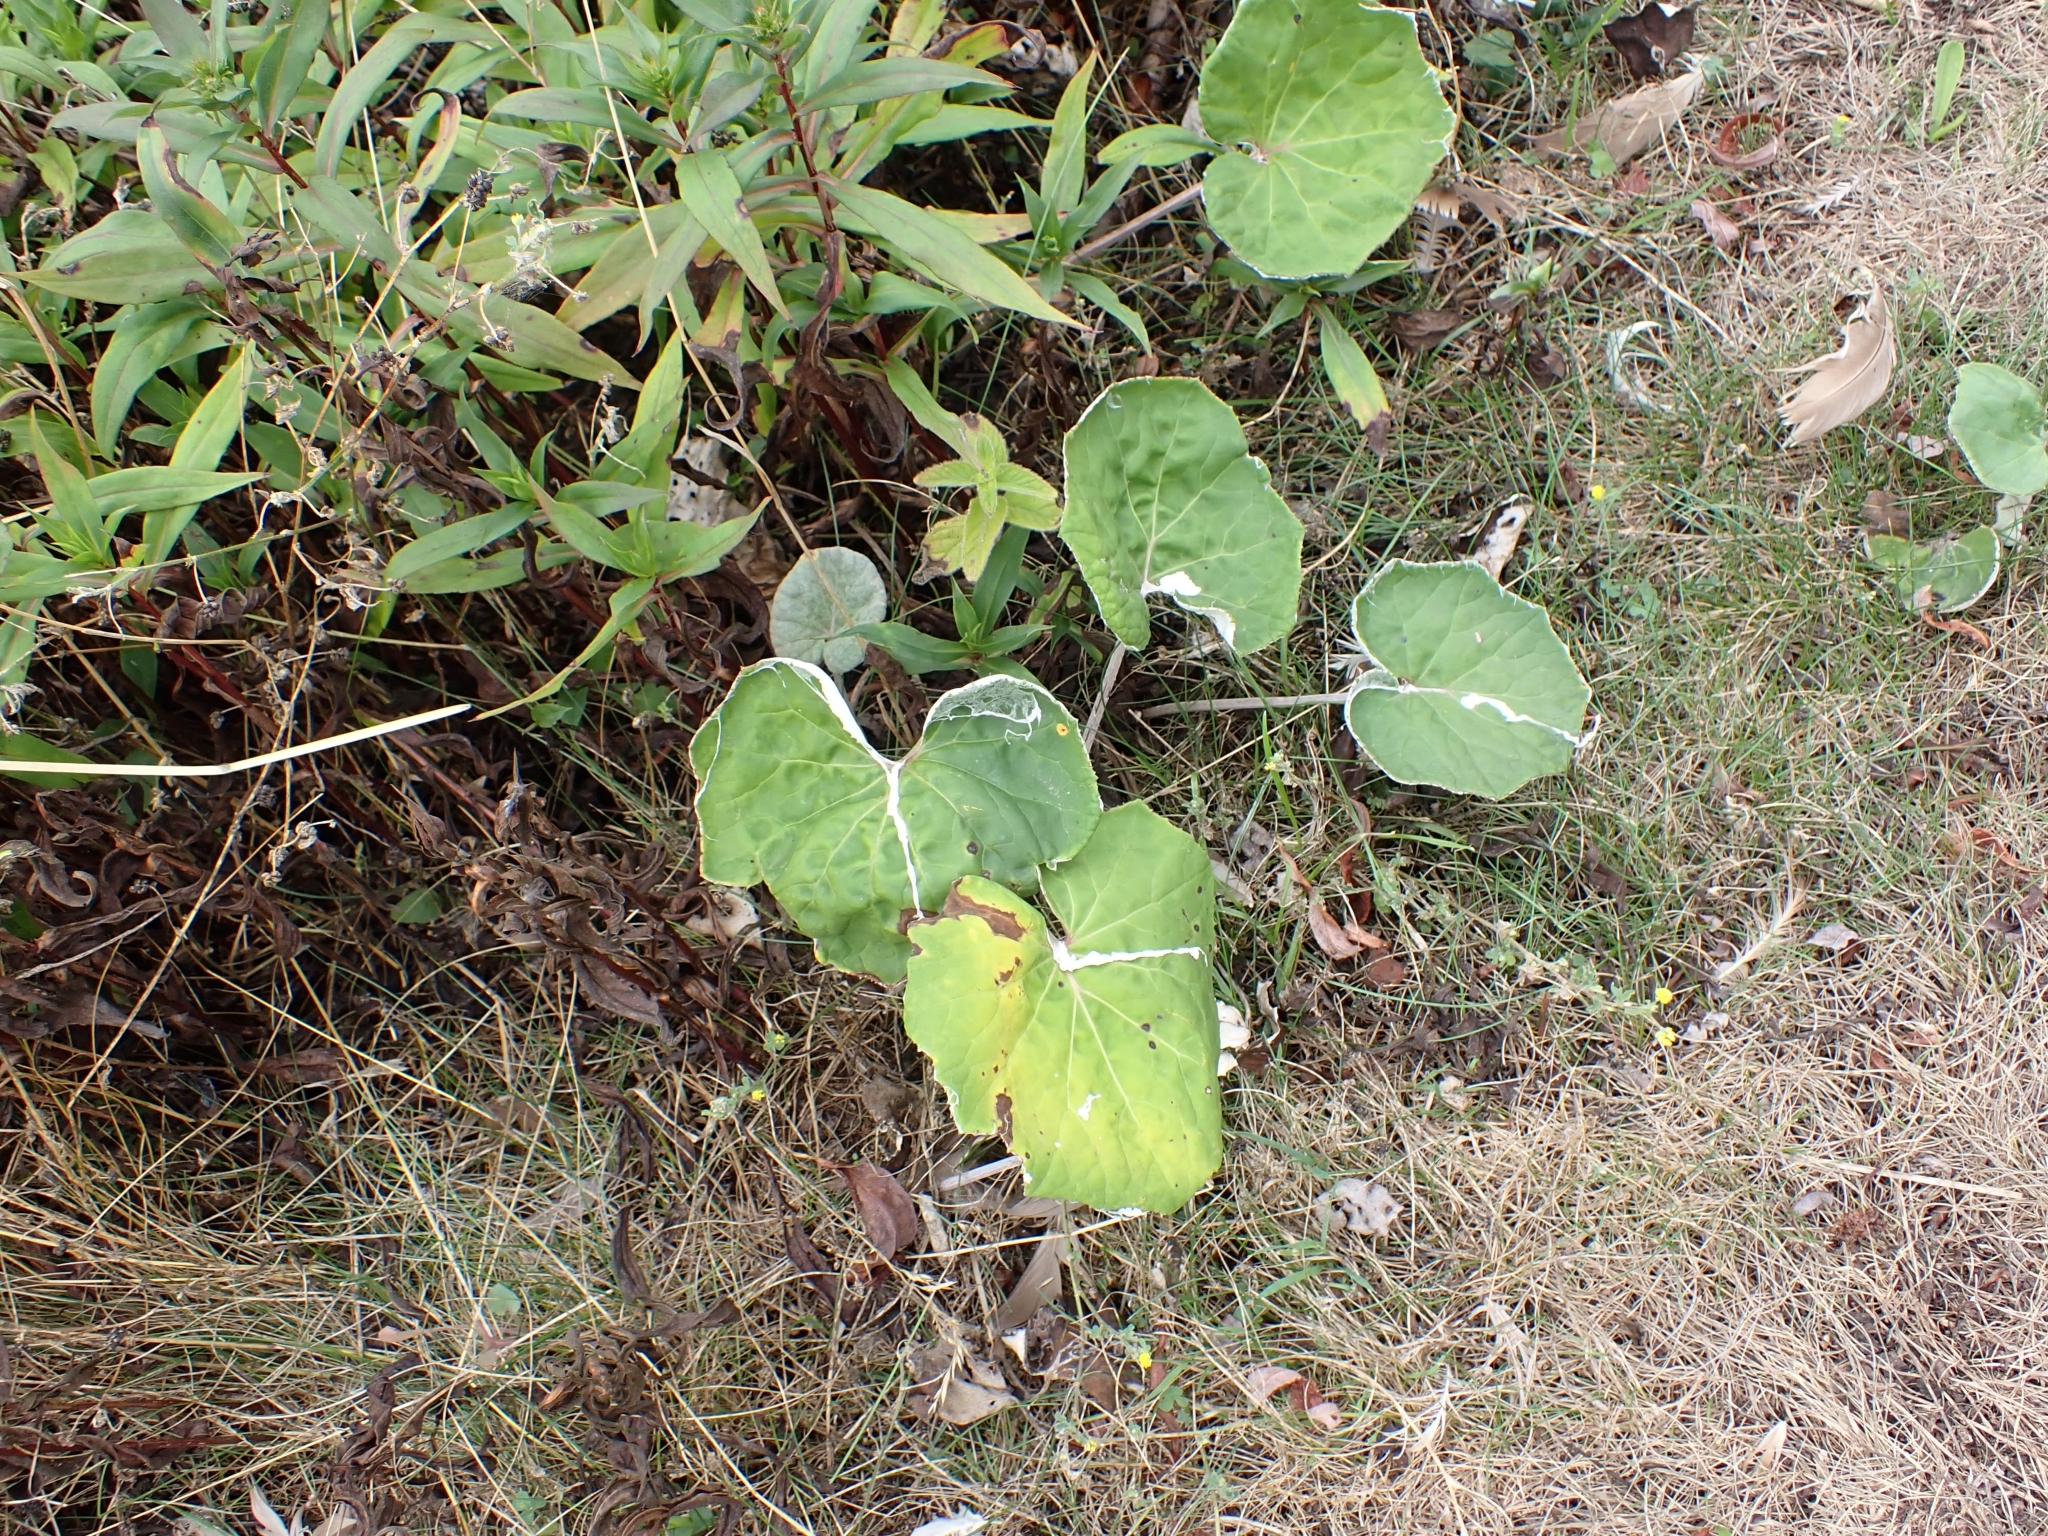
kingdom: Plantae
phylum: Tracheophyta
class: Magnoliopsida
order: Asterales
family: Asteraceae
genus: Tussilago
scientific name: Tussilago farfara
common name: Coltsfoot
